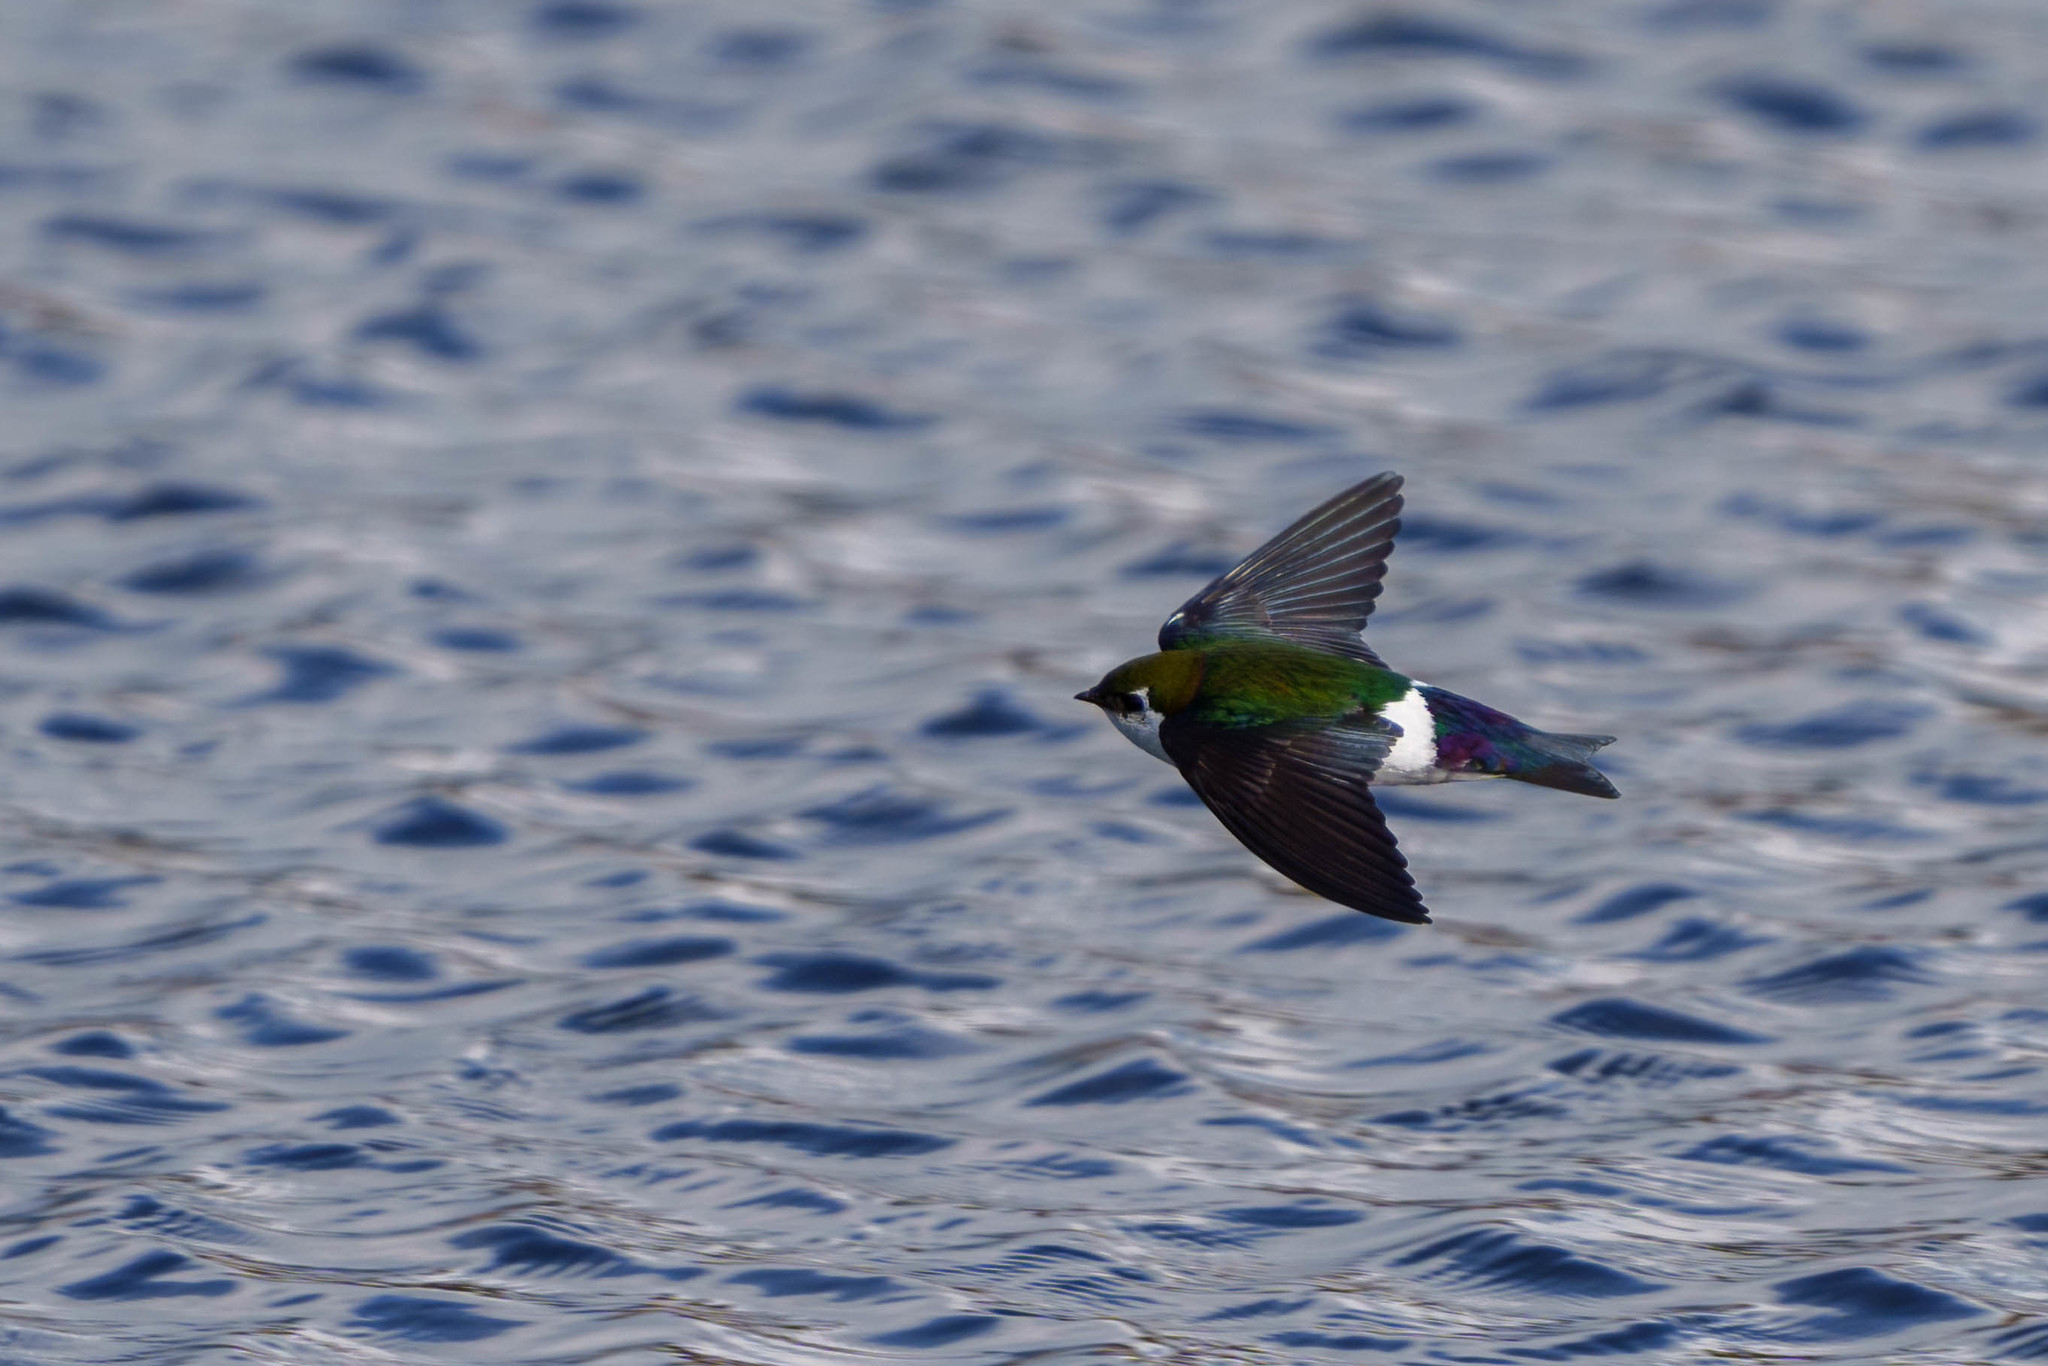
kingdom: Animalia
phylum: Chordata
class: Aves
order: Passeriformes
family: Hirundinidae
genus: Tachycineta
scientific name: Tachycineta thalassina
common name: Violet-green swallow
